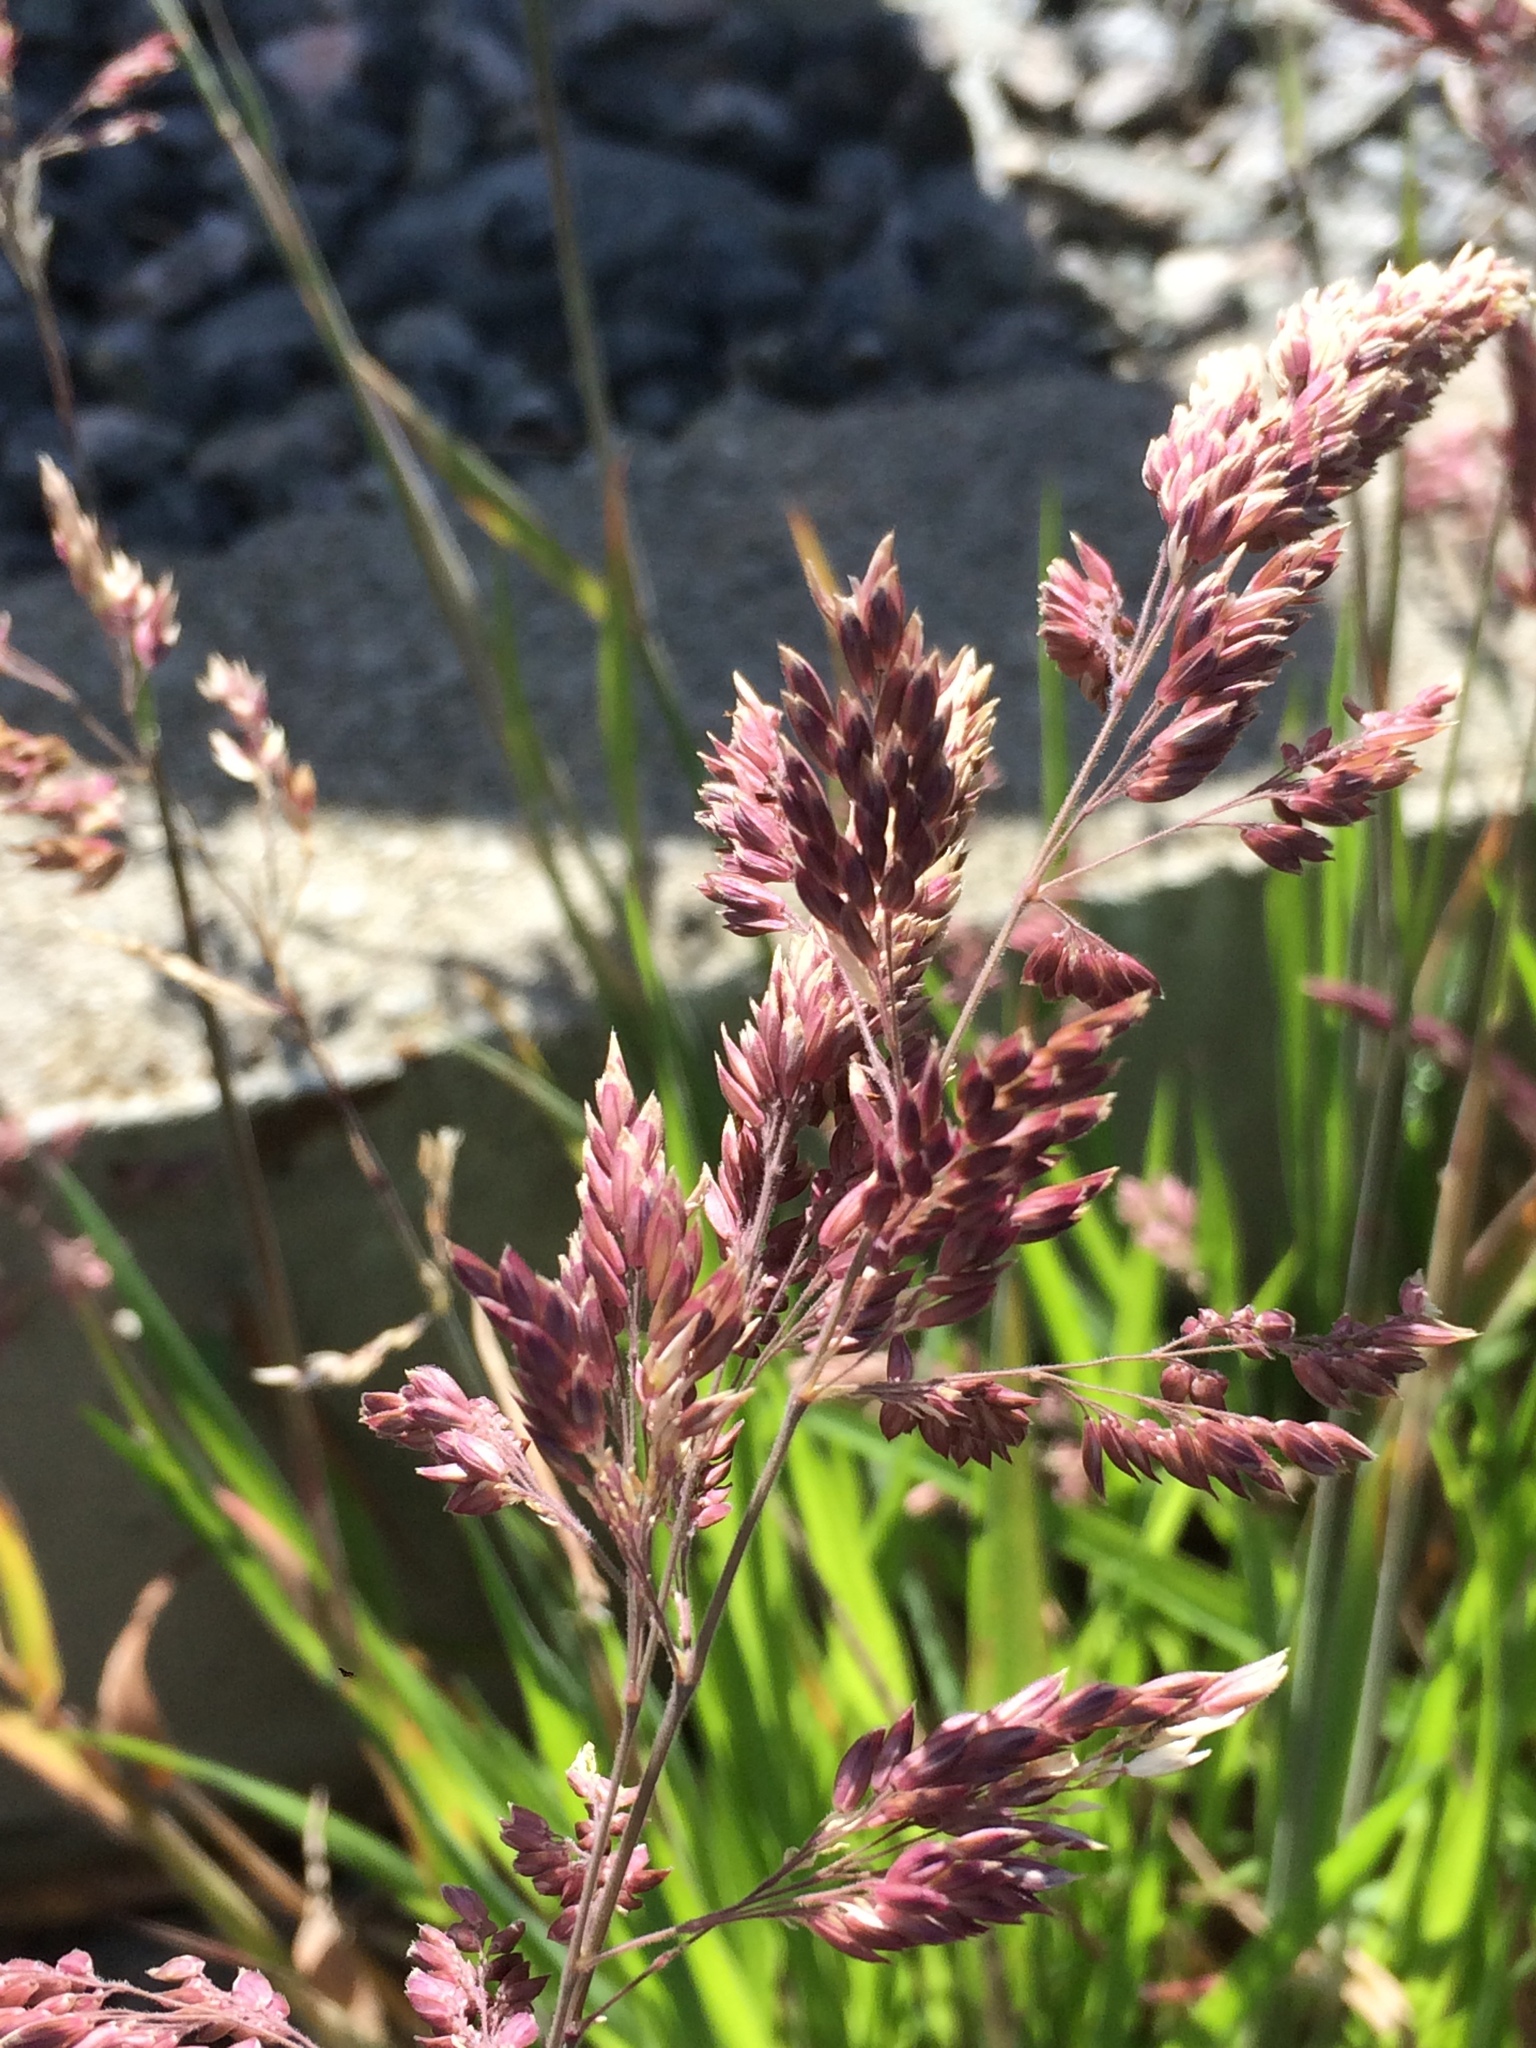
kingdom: Plantae
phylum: Tracheophyta
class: Liliopsida
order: Poales
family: Poaceae
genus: Holcus
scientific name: Holcus lanatus
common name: Yorkshire-fog
